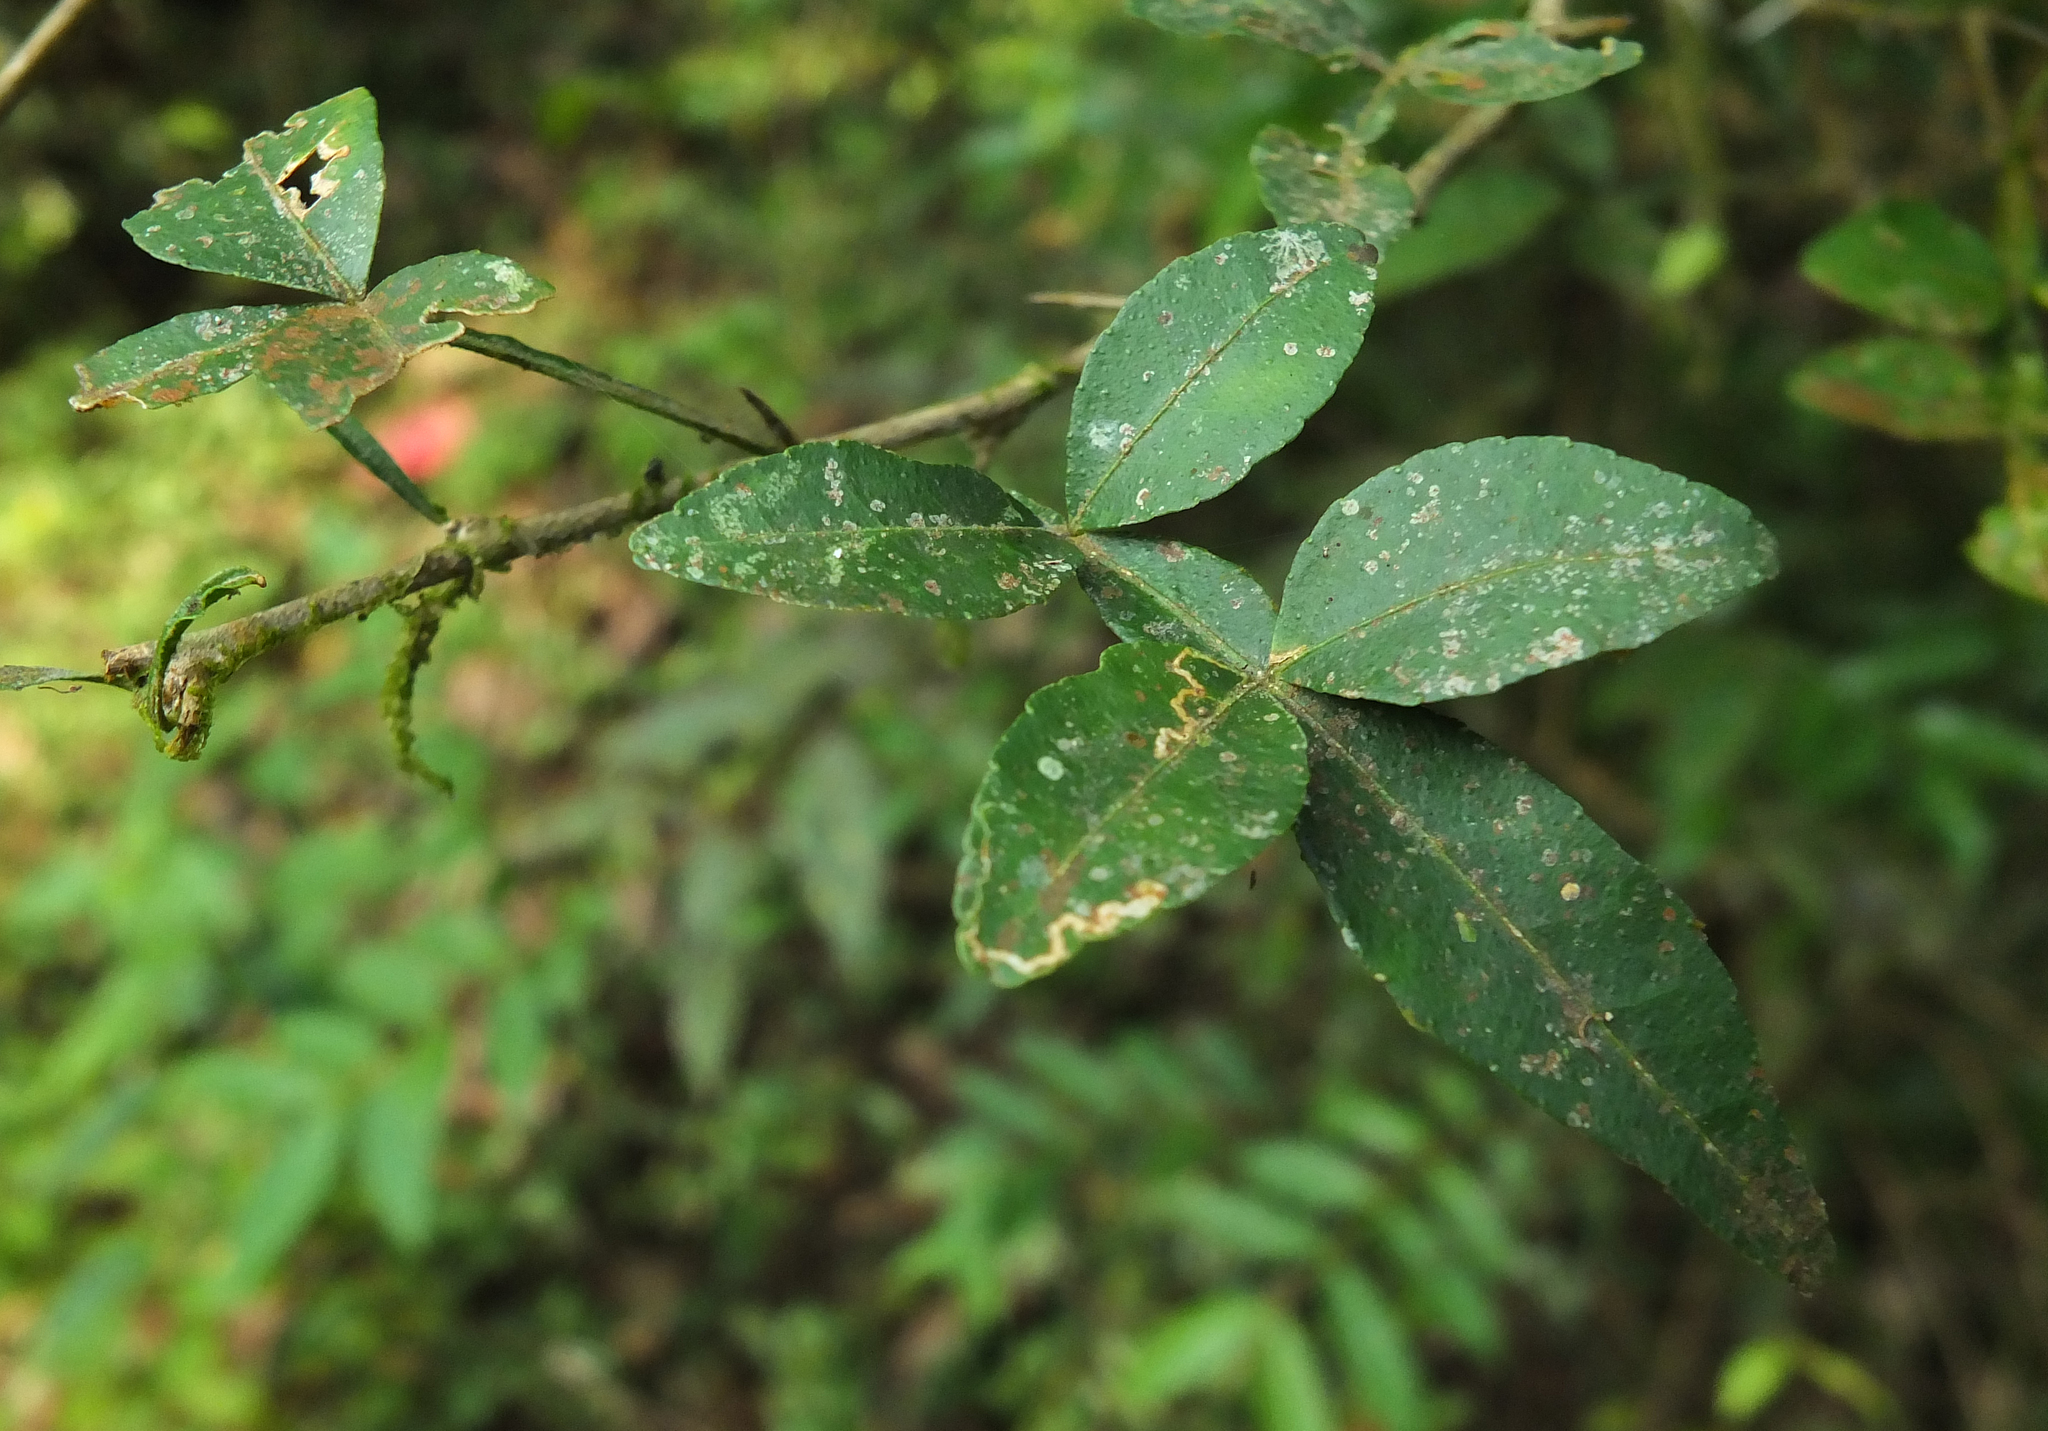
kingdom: Plantae
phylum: Tracheophyta
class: Magnoliopsida
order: Sapindales
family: Rutaceae
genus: Naringi
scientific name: Naringi crenulata
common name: Hesperethusa
